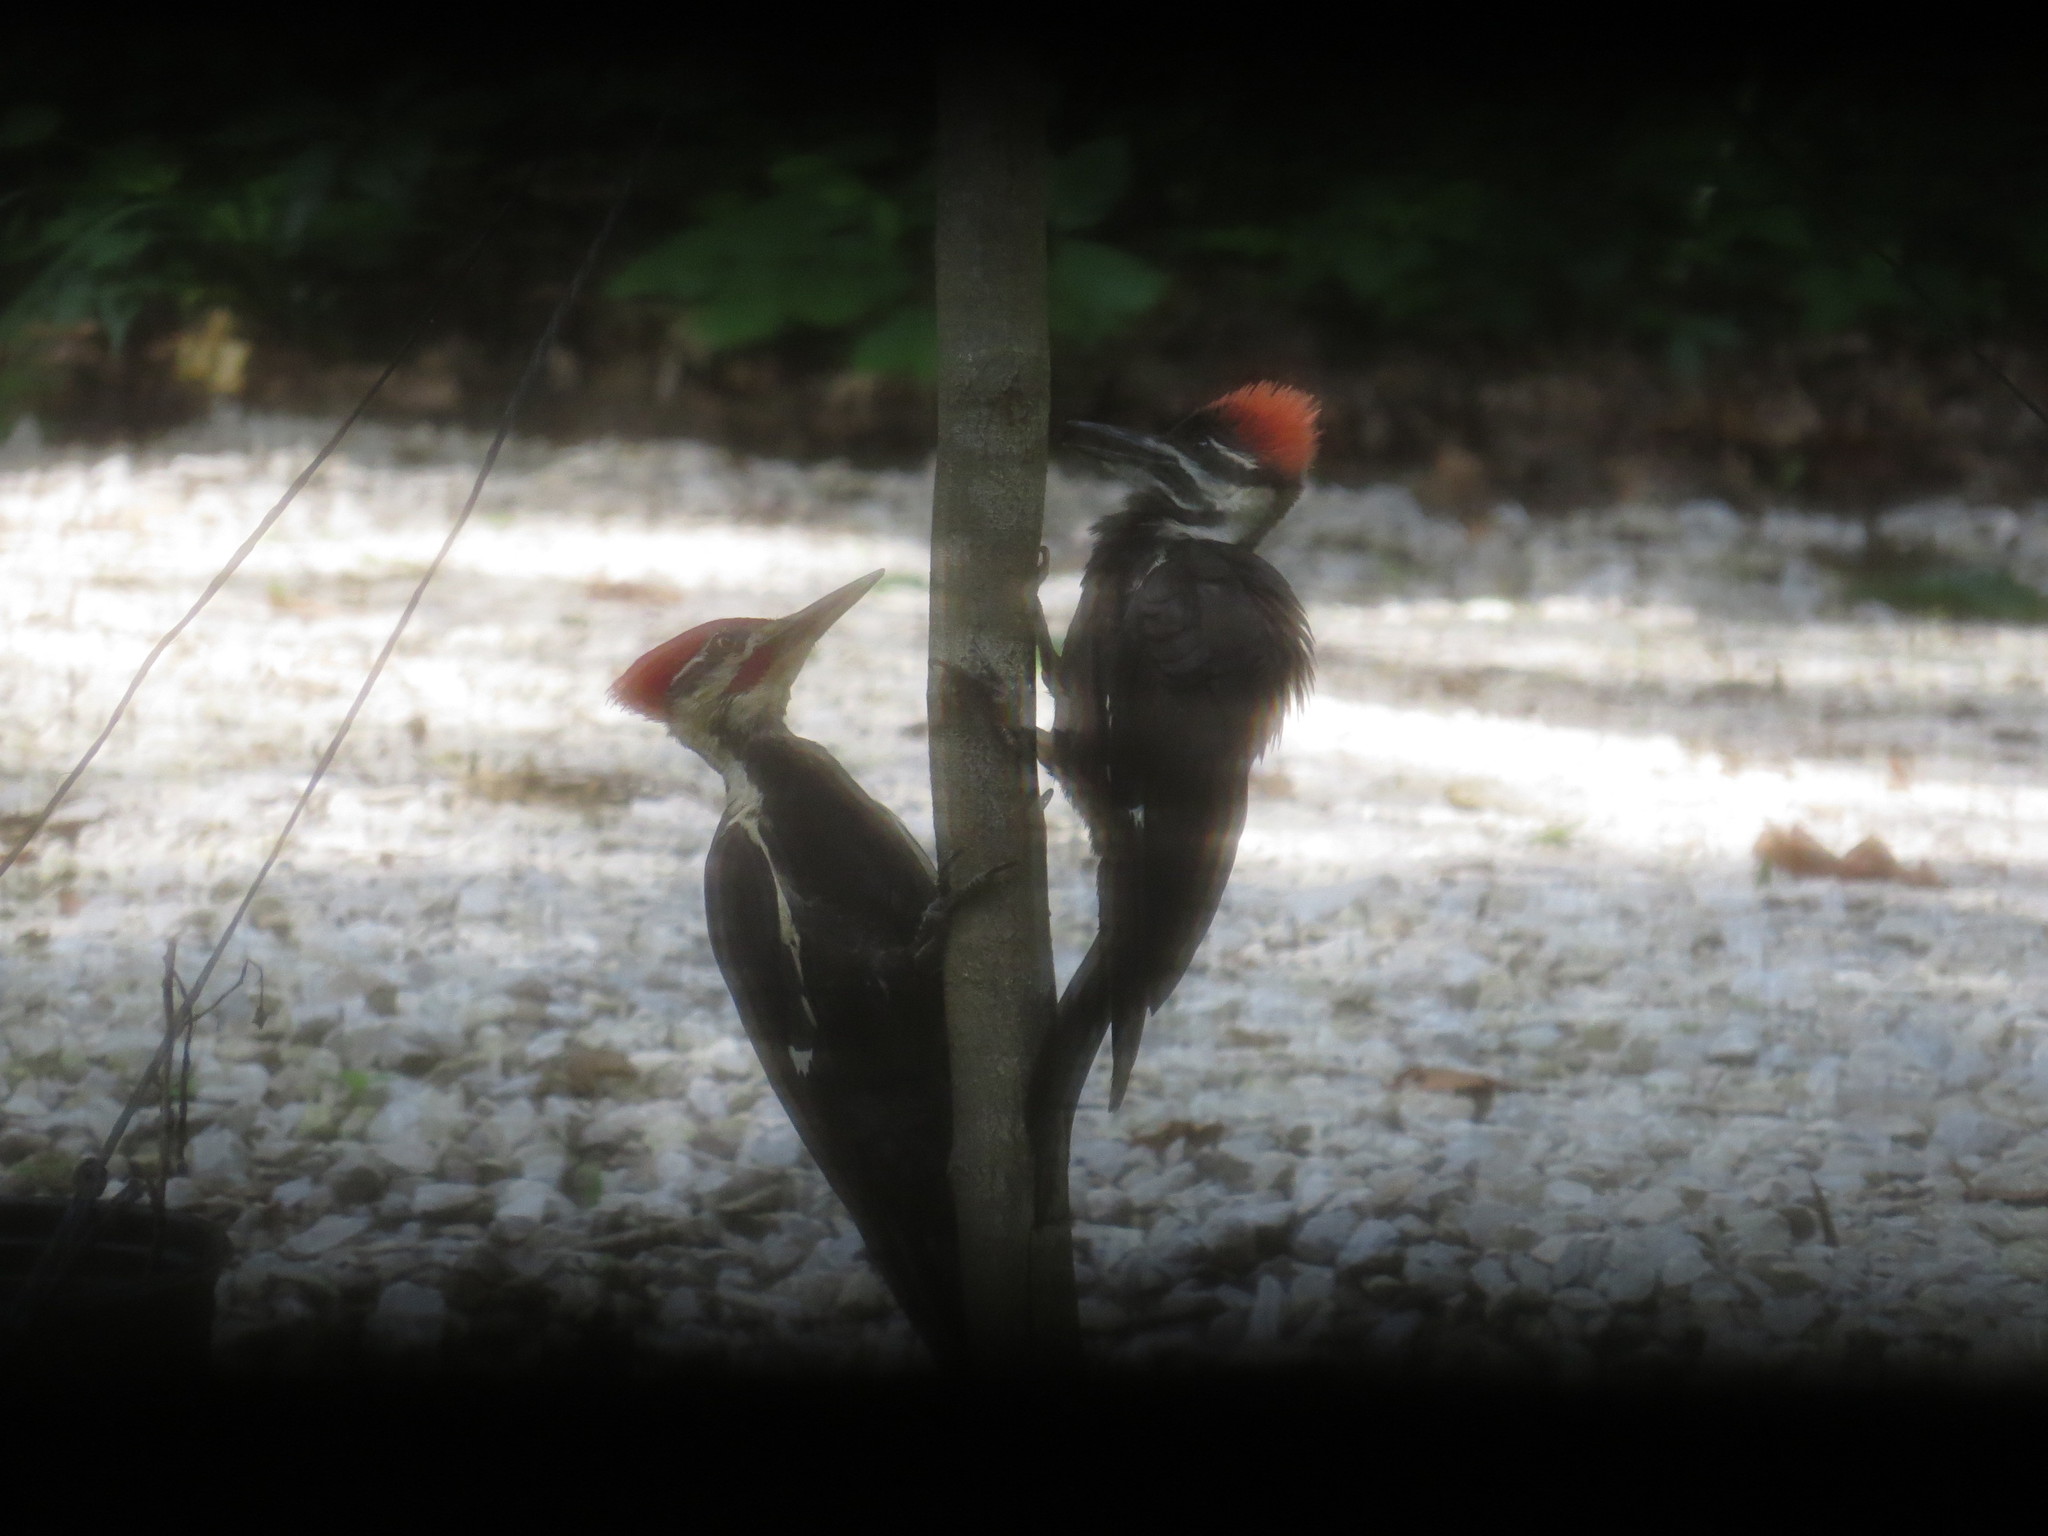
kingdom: Animalia
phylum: Chordata
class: Aves
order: Piciformes
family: Picidae
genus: Dryocopus
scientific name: Dryocopus pileatus
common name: Pileated woodpecker
